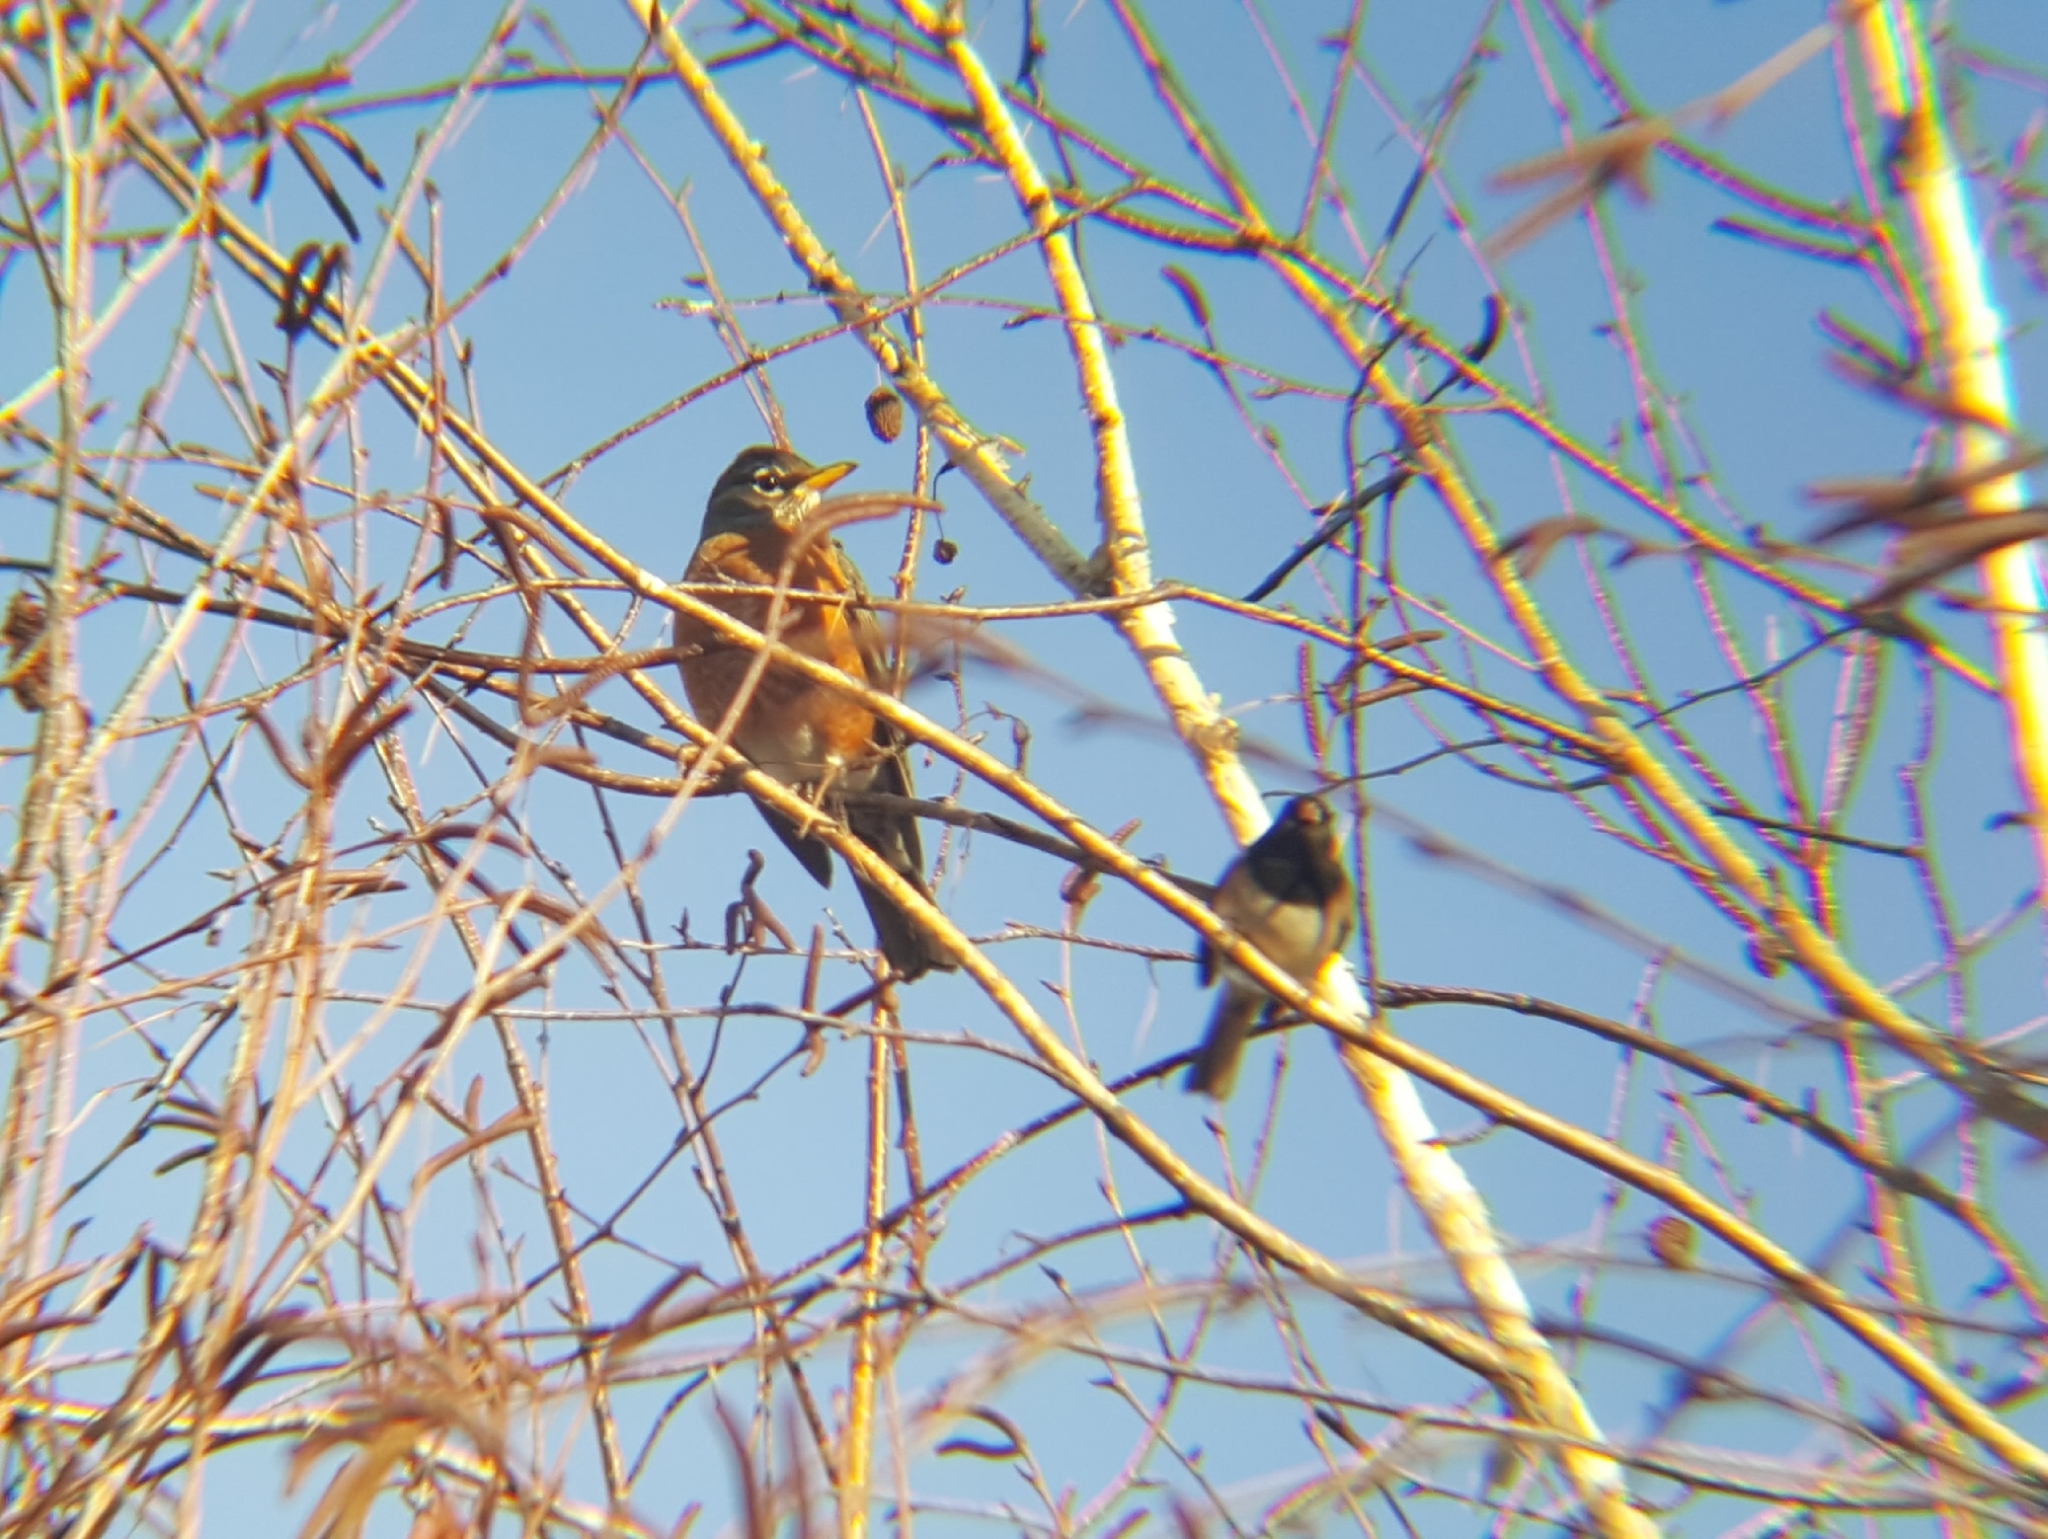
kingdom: Animalia
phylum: Chordata
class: Aves
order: Passeriformes
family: Turdidae
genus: Turdus
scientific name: Turdus migratorius
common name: American robin
